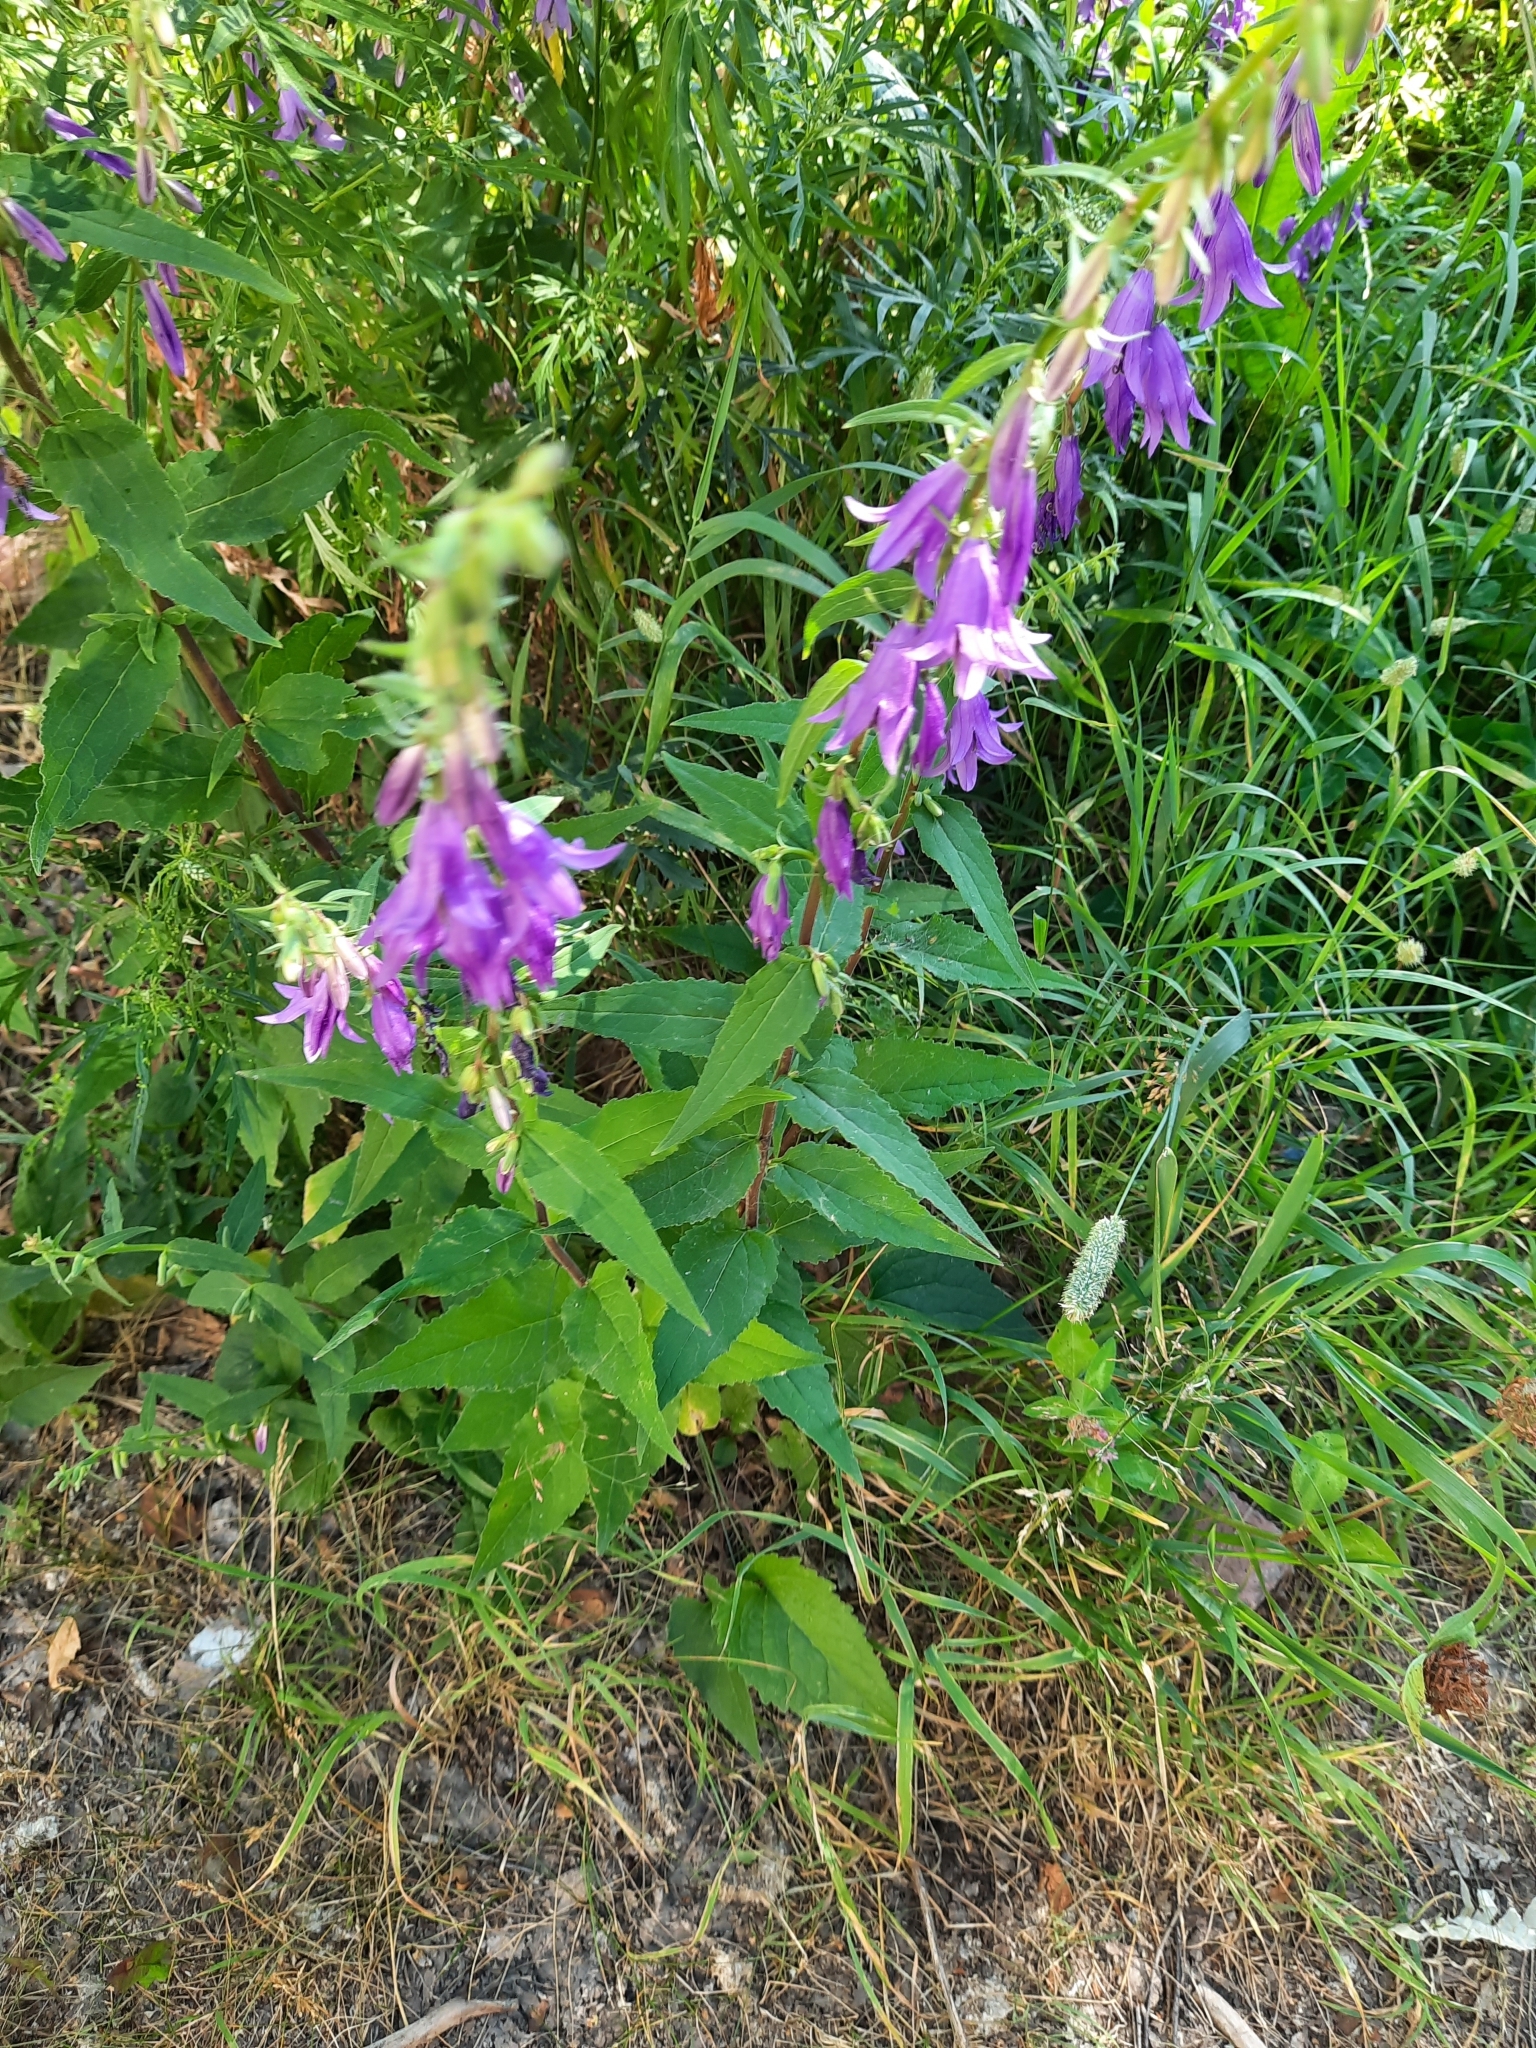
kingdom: Plantae
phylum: Tracheophyta
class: Magnoliopsida
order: Asterales
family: Campanulaceae
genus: Campanula
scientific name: Campanula rapunculoides
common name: Creeping bellflower
